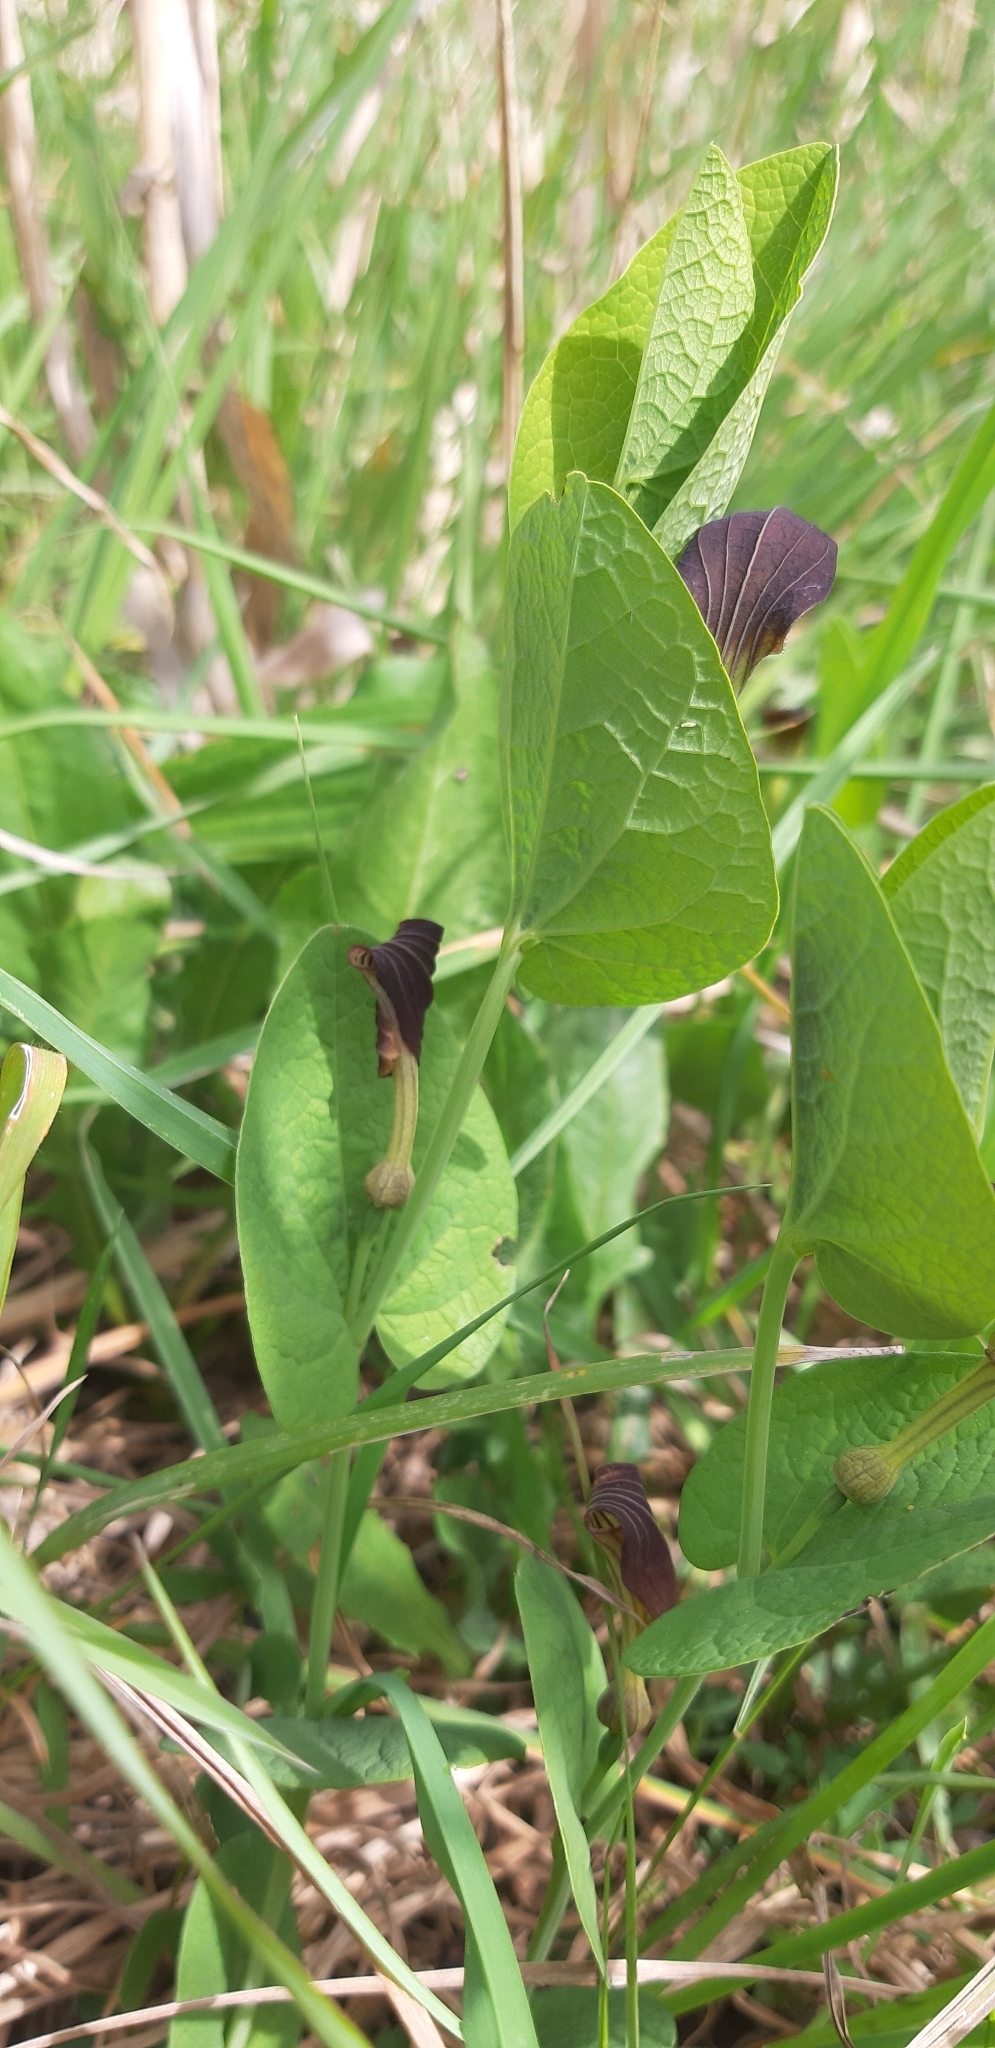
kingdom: Plantae
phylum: Tracheophyta
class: Magnoliopsida
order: Piperales
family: Aristolochiaceae
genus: Aristolochia
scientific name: Aristolochia rotunda
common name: Smearwort
